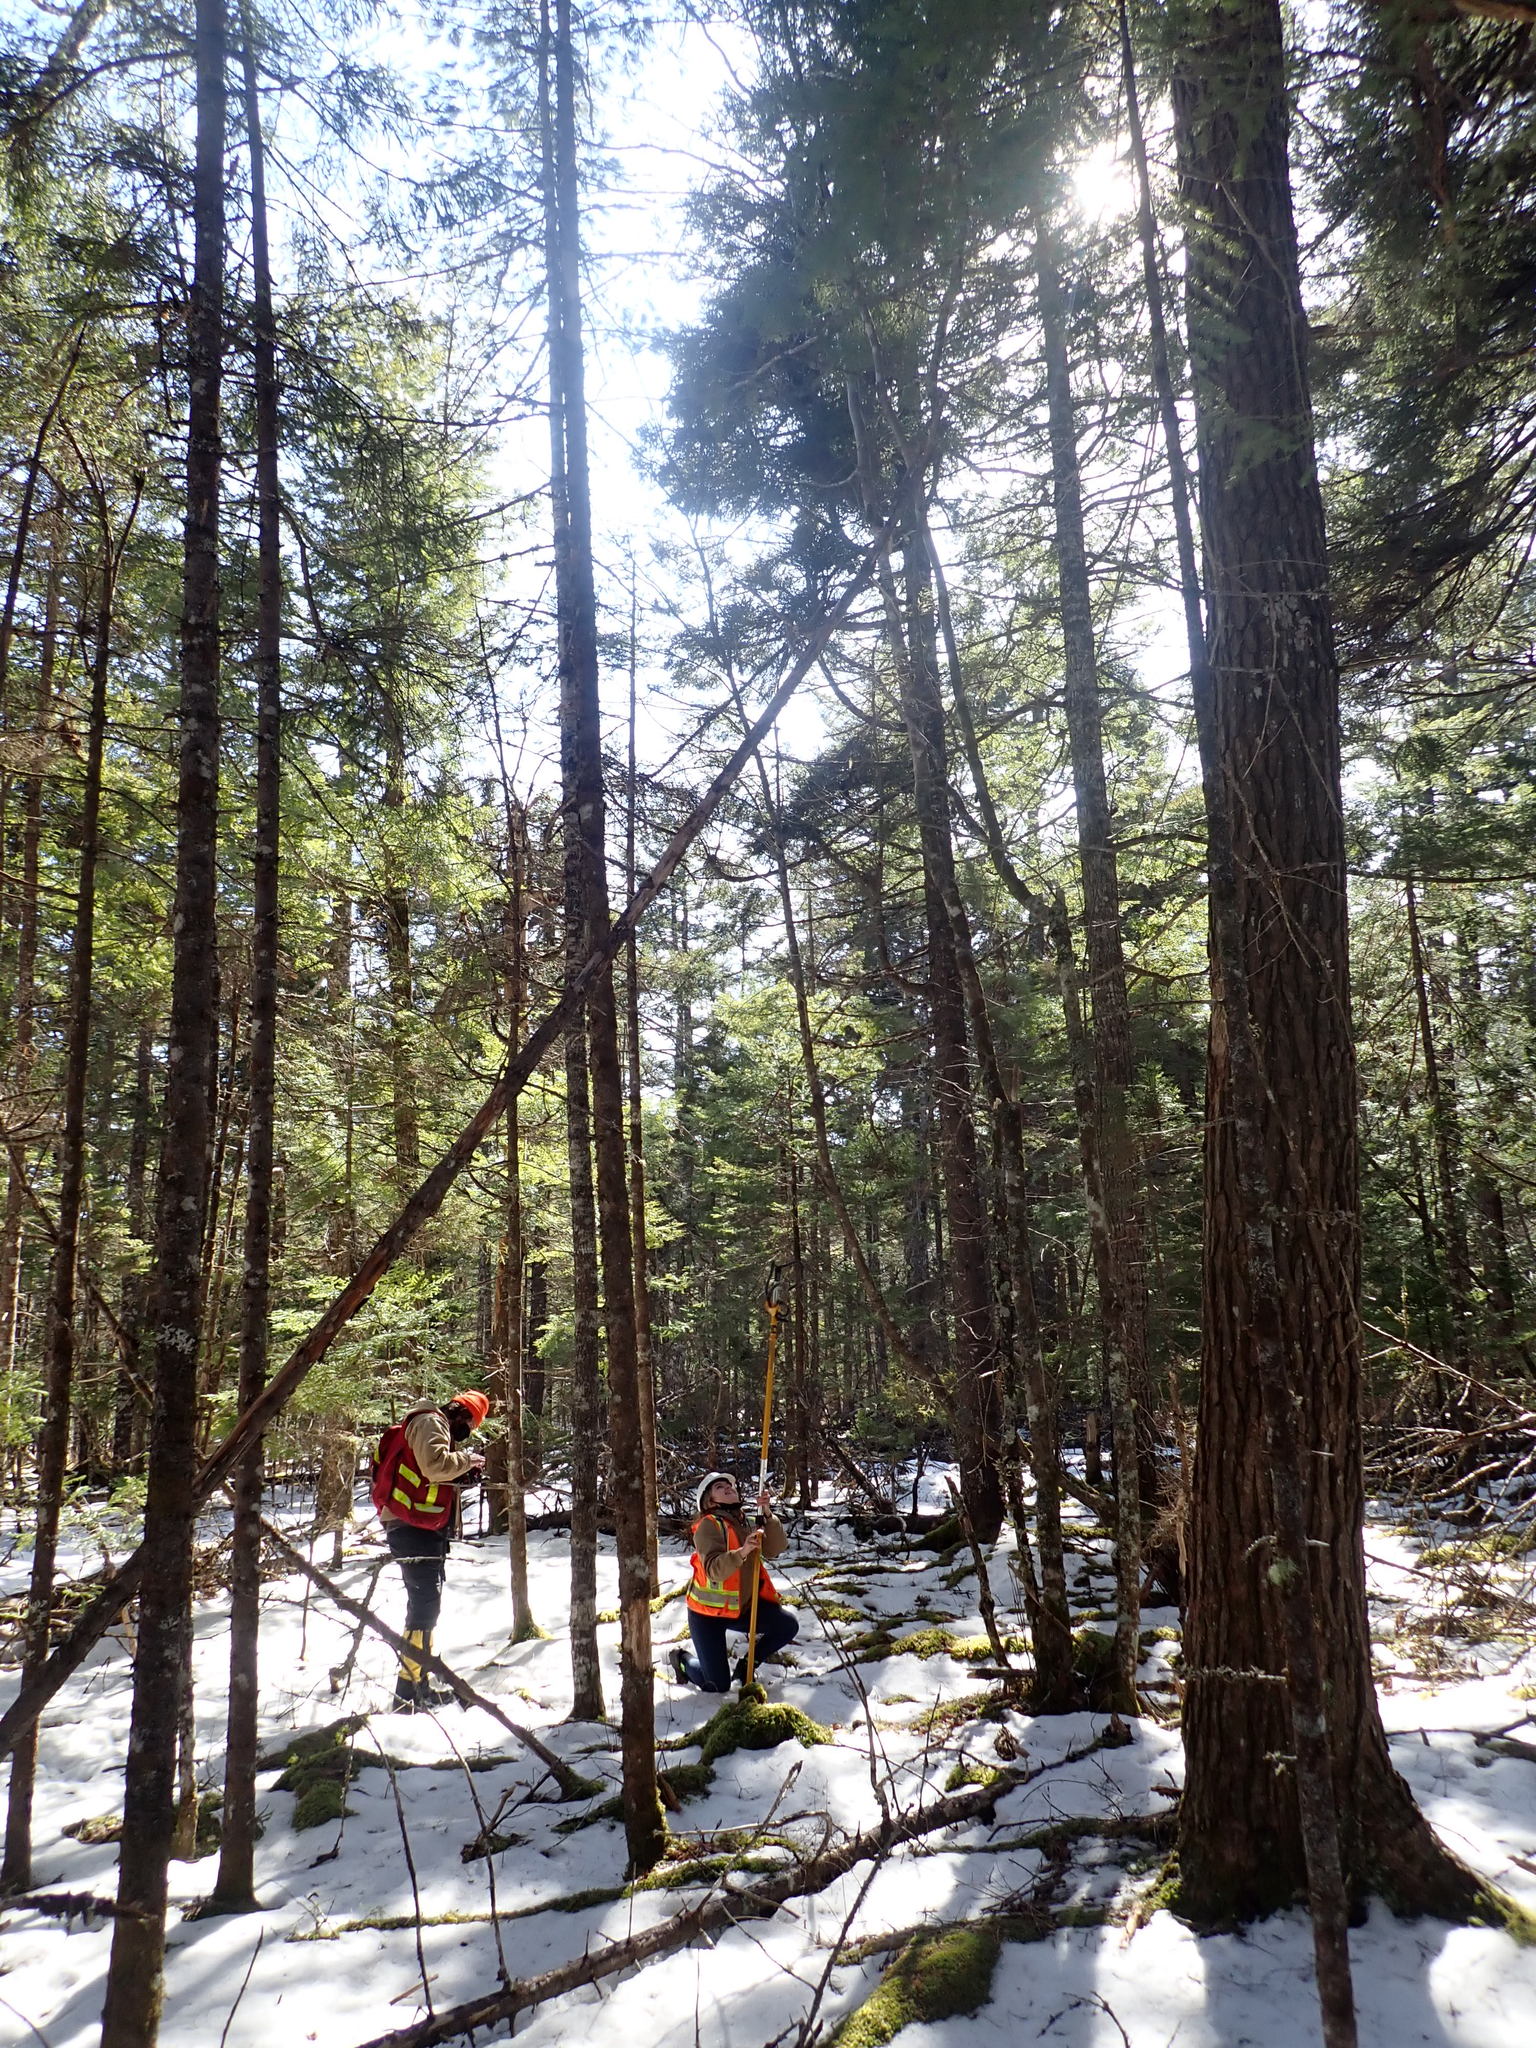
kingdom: Plantae
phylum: Tracheophyta
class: Pinopsida
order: Pinales
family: Pinaceae
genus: Tsuga
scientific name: Tsuga canadensis
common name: Eastern hemlock
